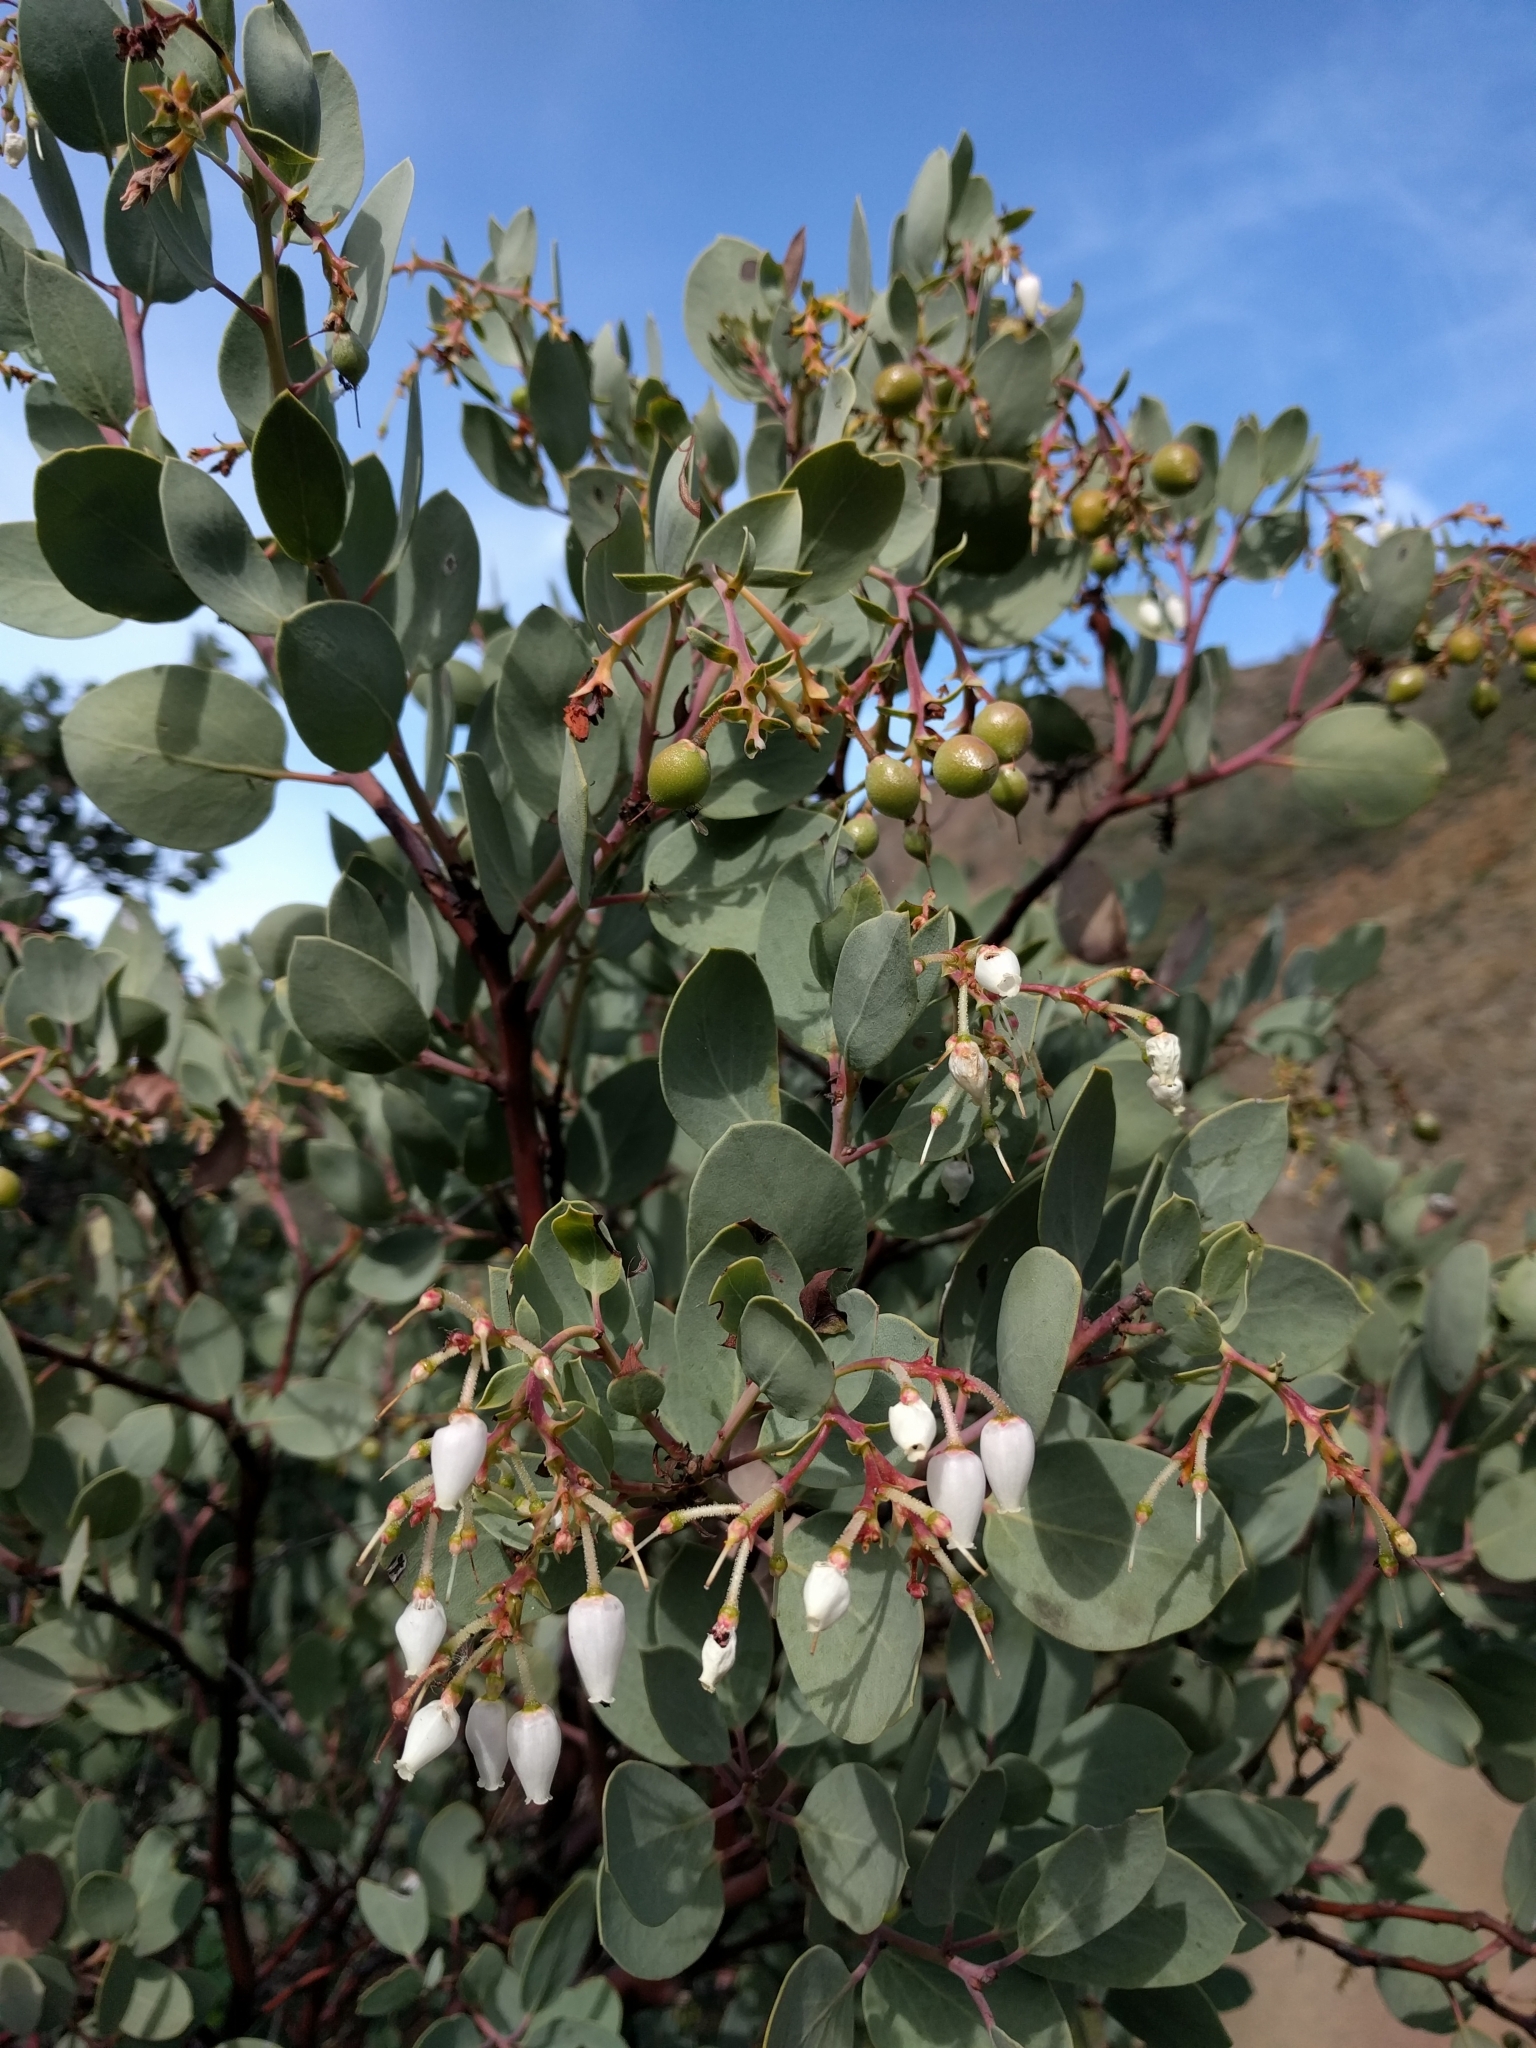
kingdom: Plantae
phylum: Tracheophyta
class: Magnoliopsida
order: Ericales
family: Ericaceae
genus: Arctostaphylos
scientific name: Arctostaphylos glauca
